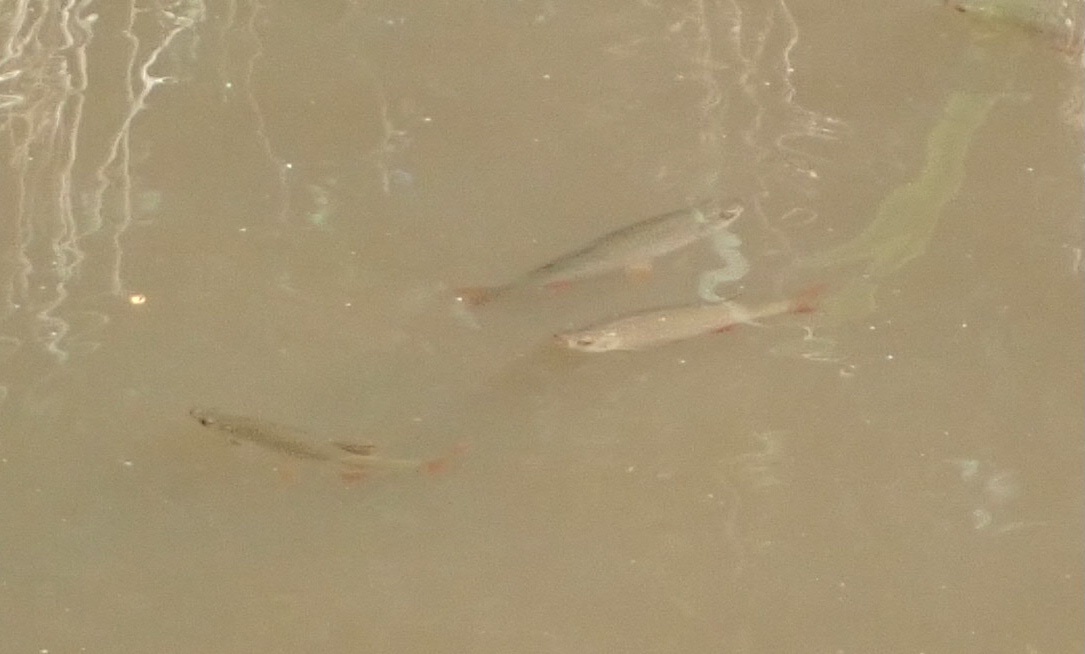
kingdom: Animalia
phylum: Chordata
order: Cypriniformes
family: Cyprinidae
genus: Scardinius
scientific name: Scardinius erythrophthalmus
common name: Rudd
